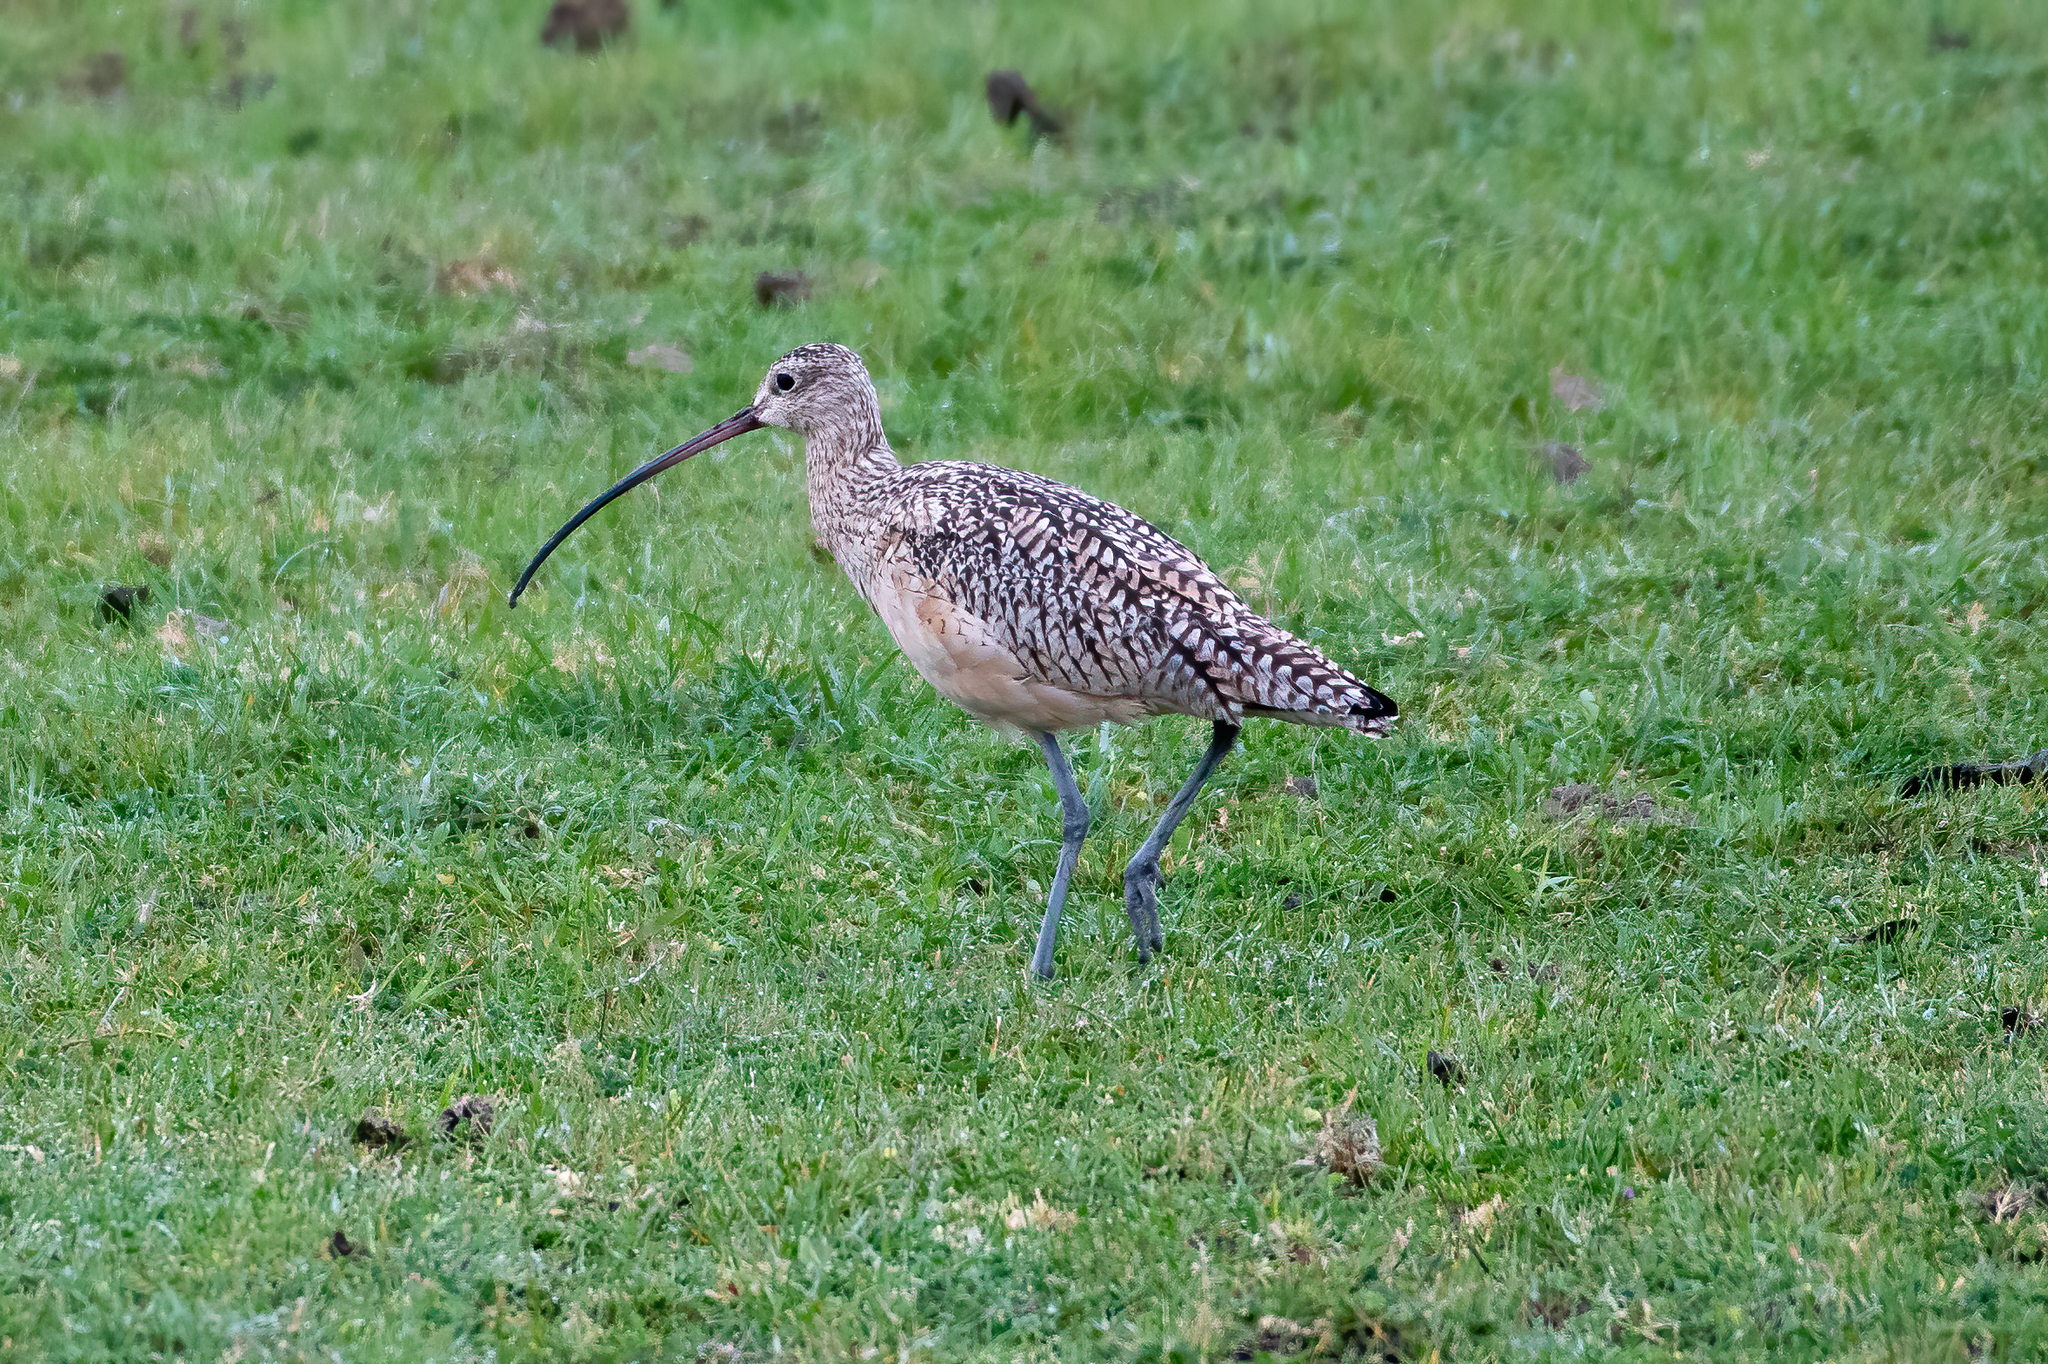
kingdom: Animalia
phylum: Chordata
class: Aves
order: Charadriiformes
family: Scolopacidae
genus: Numenius
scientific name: Numenius americanus
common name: Long-billed curlew
